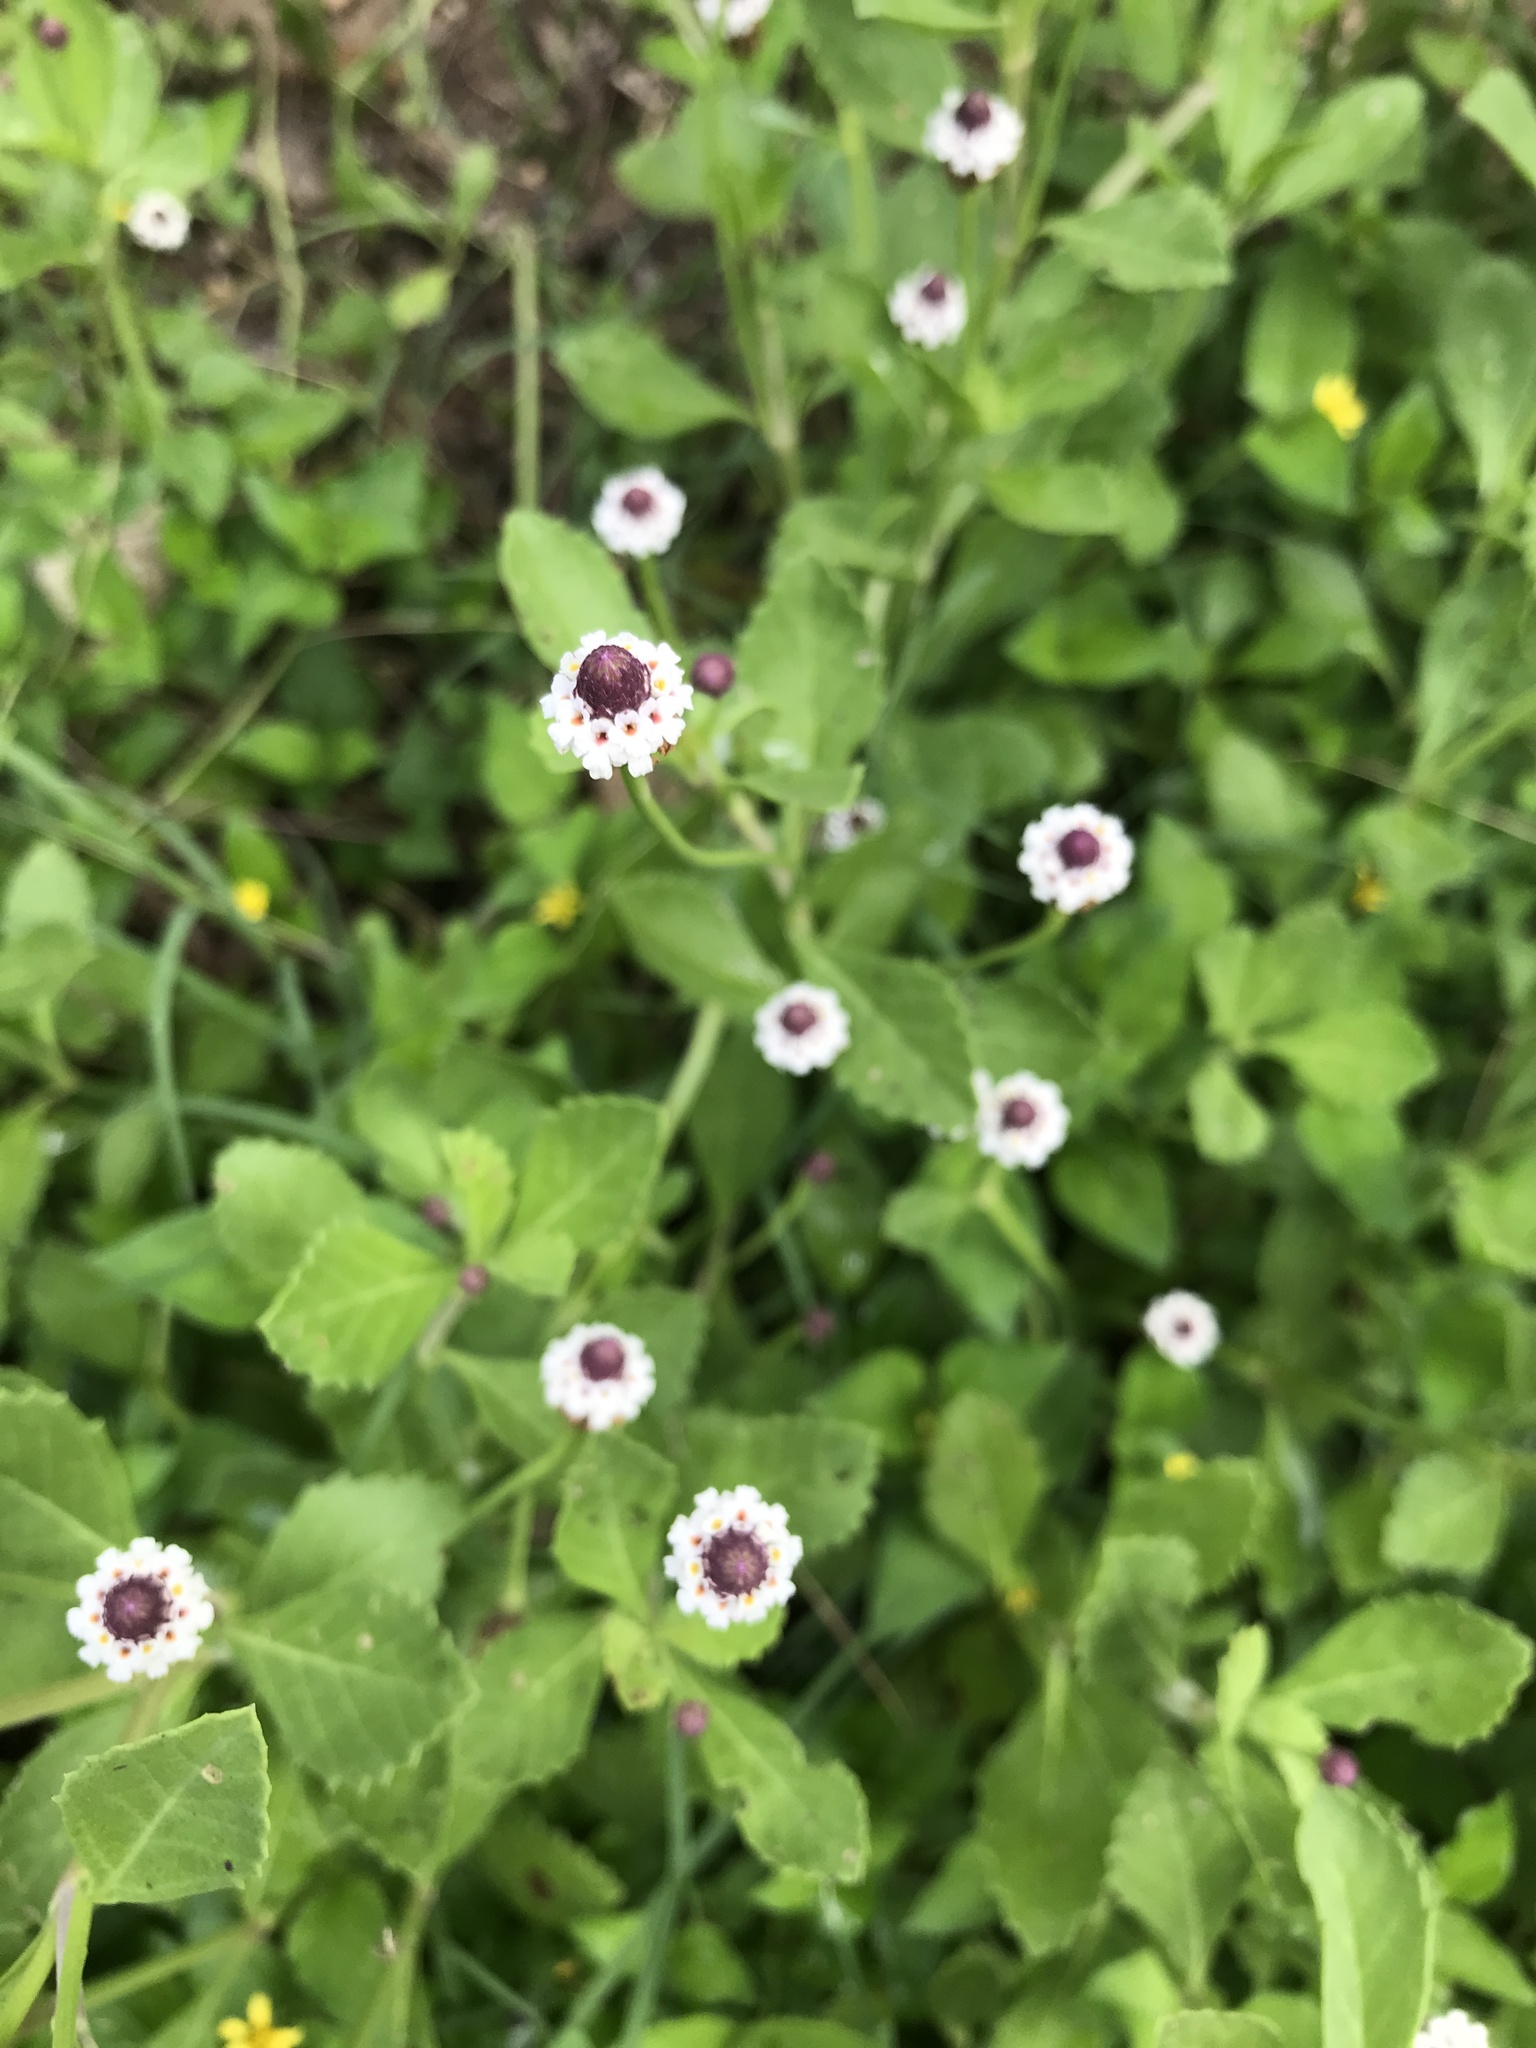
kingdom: Plantae
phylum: Tracheophyta
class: Magnoliopsida
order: Lamiales
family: Verbenaceae
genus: Phyla
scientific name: Phyla nodiflora
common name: Frogfruit
